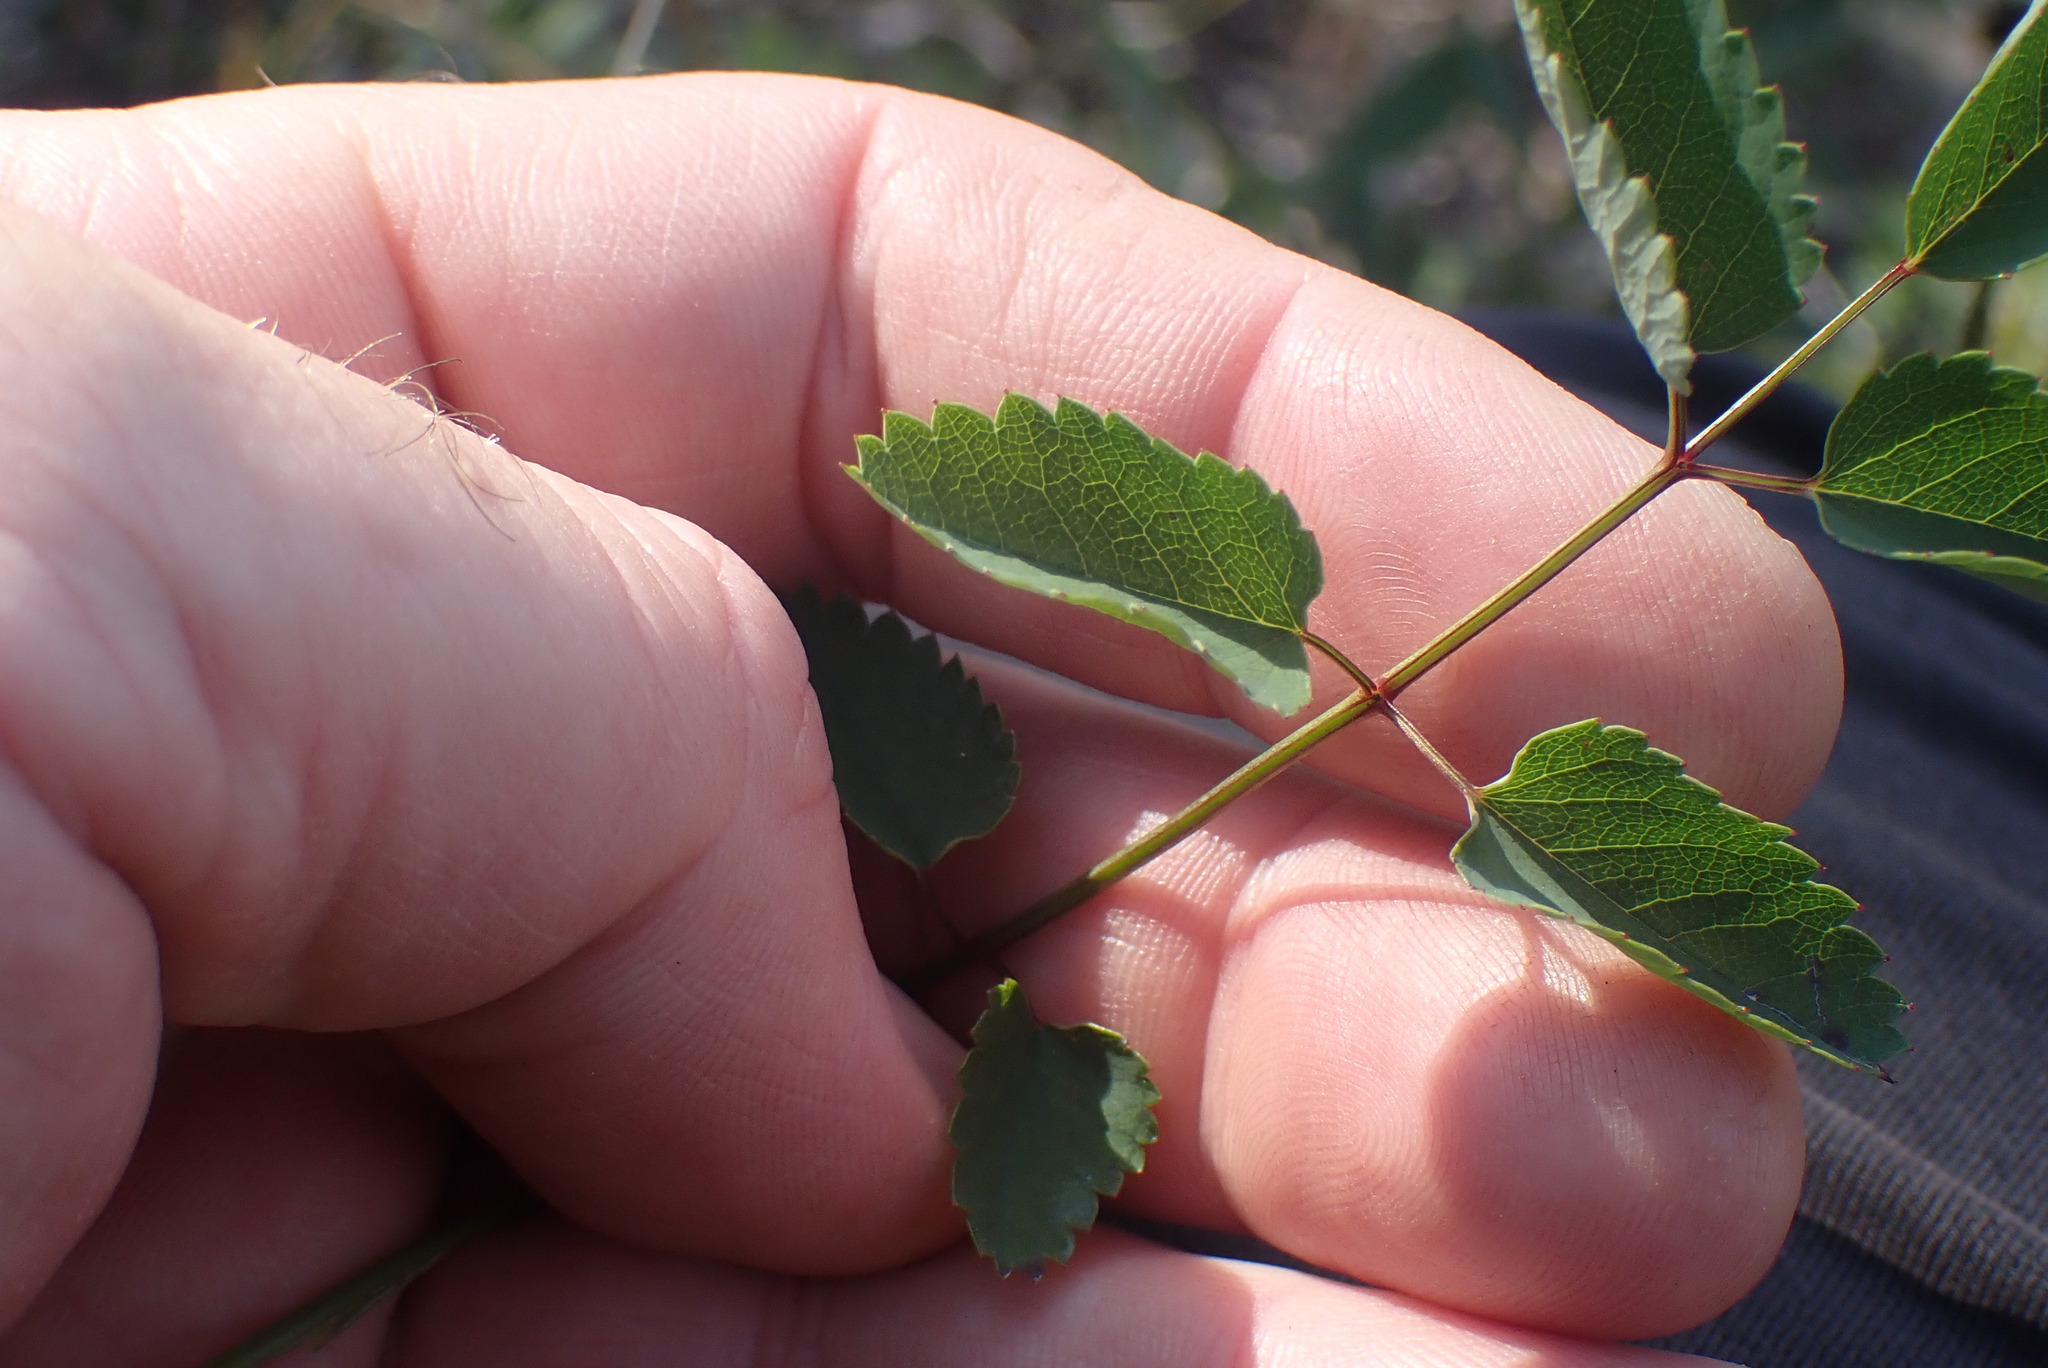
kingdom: Plantae
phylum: Tracheophyta
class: Magnoliopsida
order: Rosales
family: Rosaceae
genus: Sanguisorba
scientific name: Sanguisorba officinalis
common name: Great burnet
